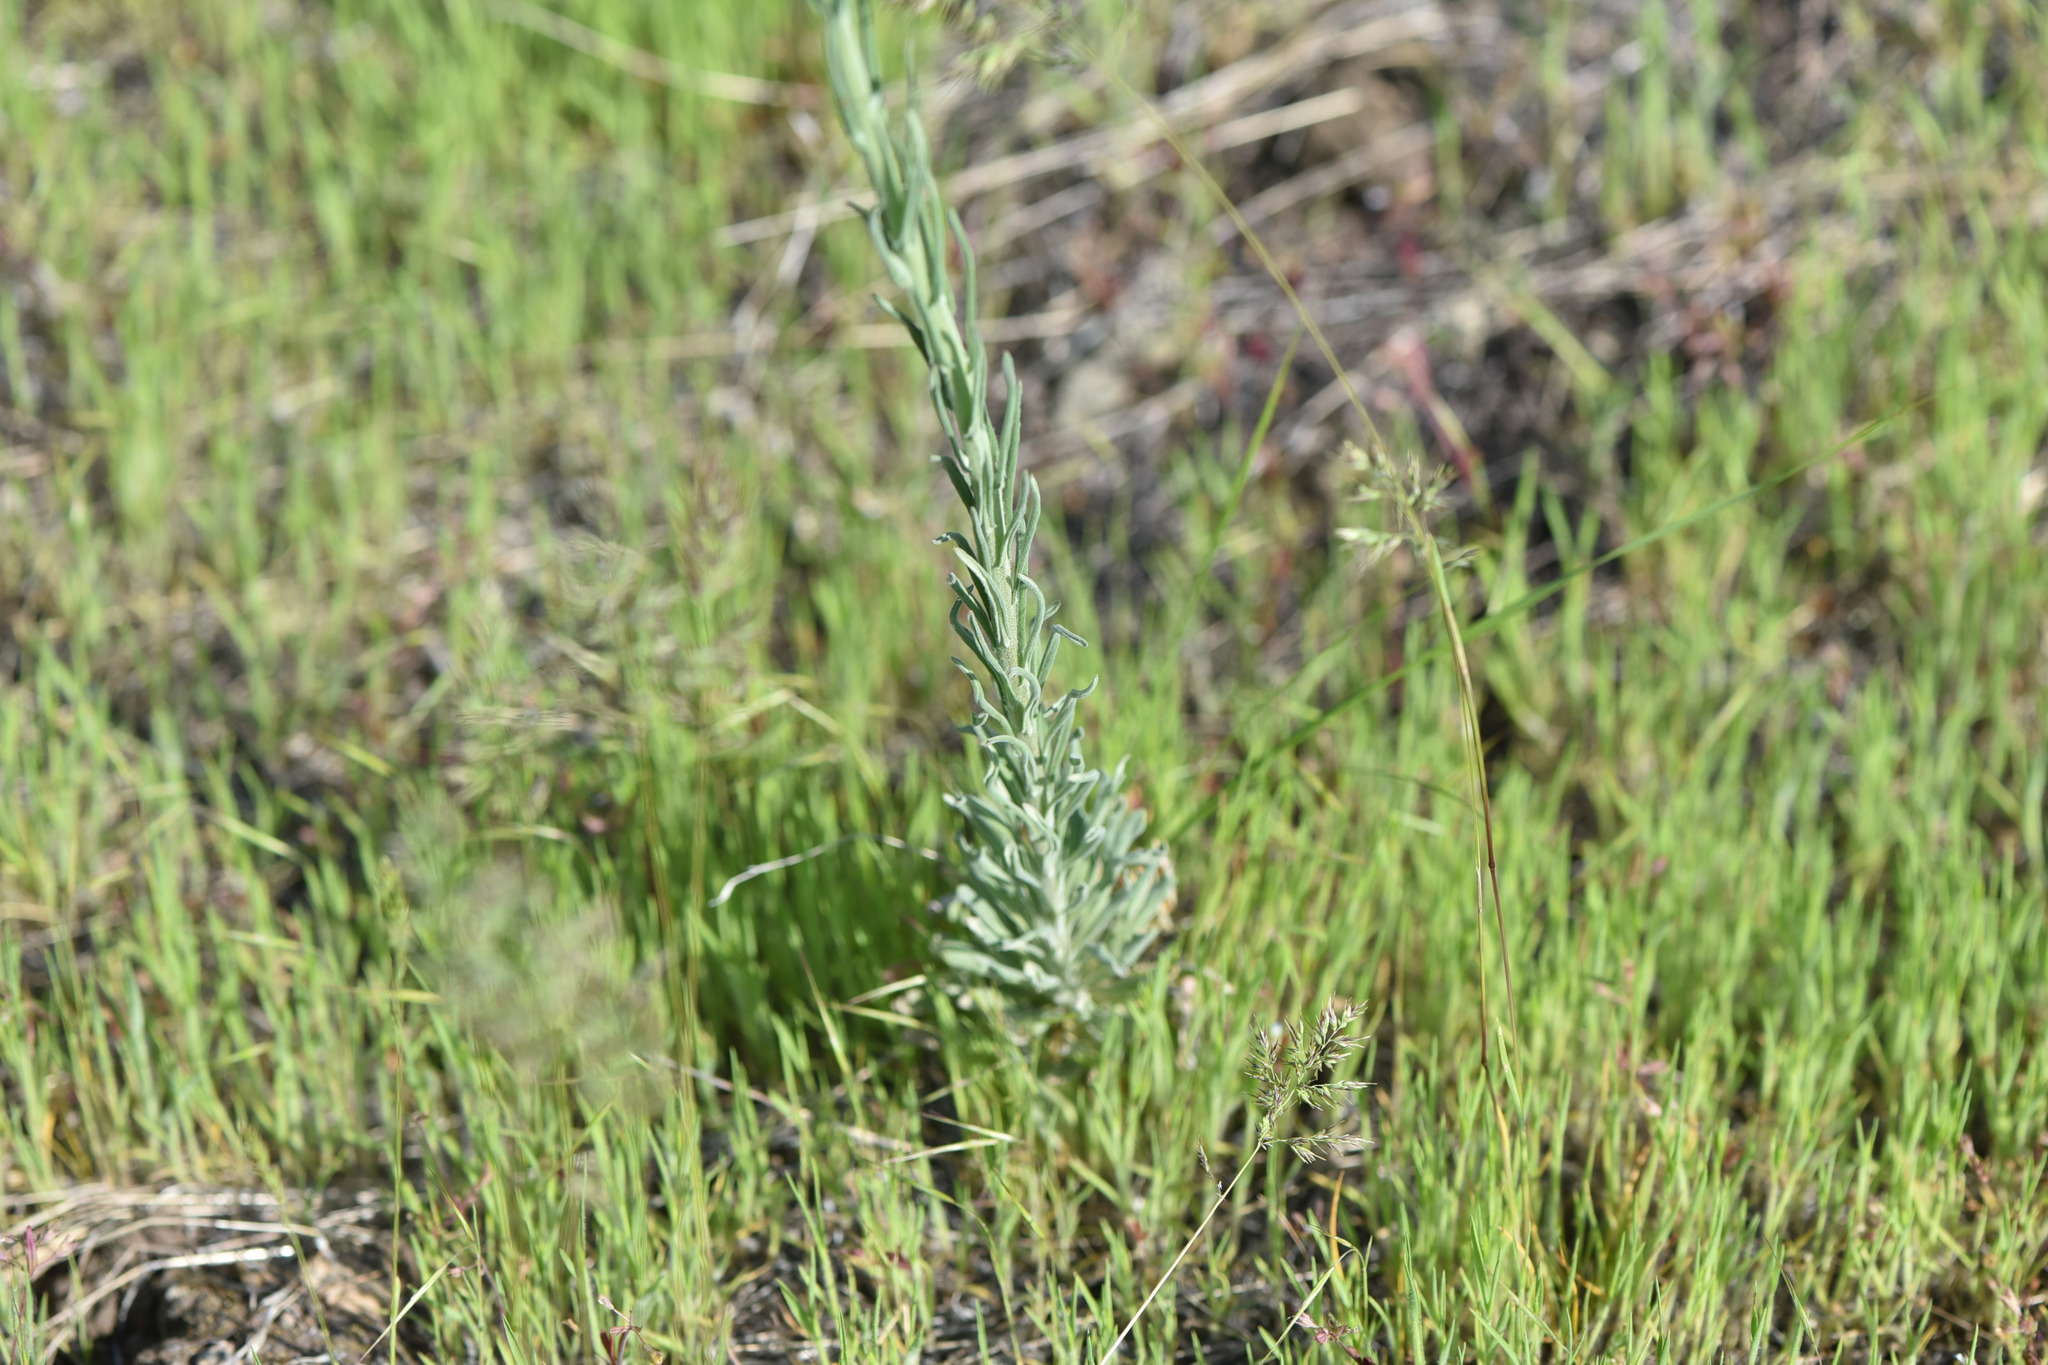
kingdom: Plantae
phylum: Tracheophyta
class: Magnoliopsida
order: Brassicales
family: Brassicaceae
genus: Boechera
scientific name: Boechera retrofracta
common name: Dangling suncress
